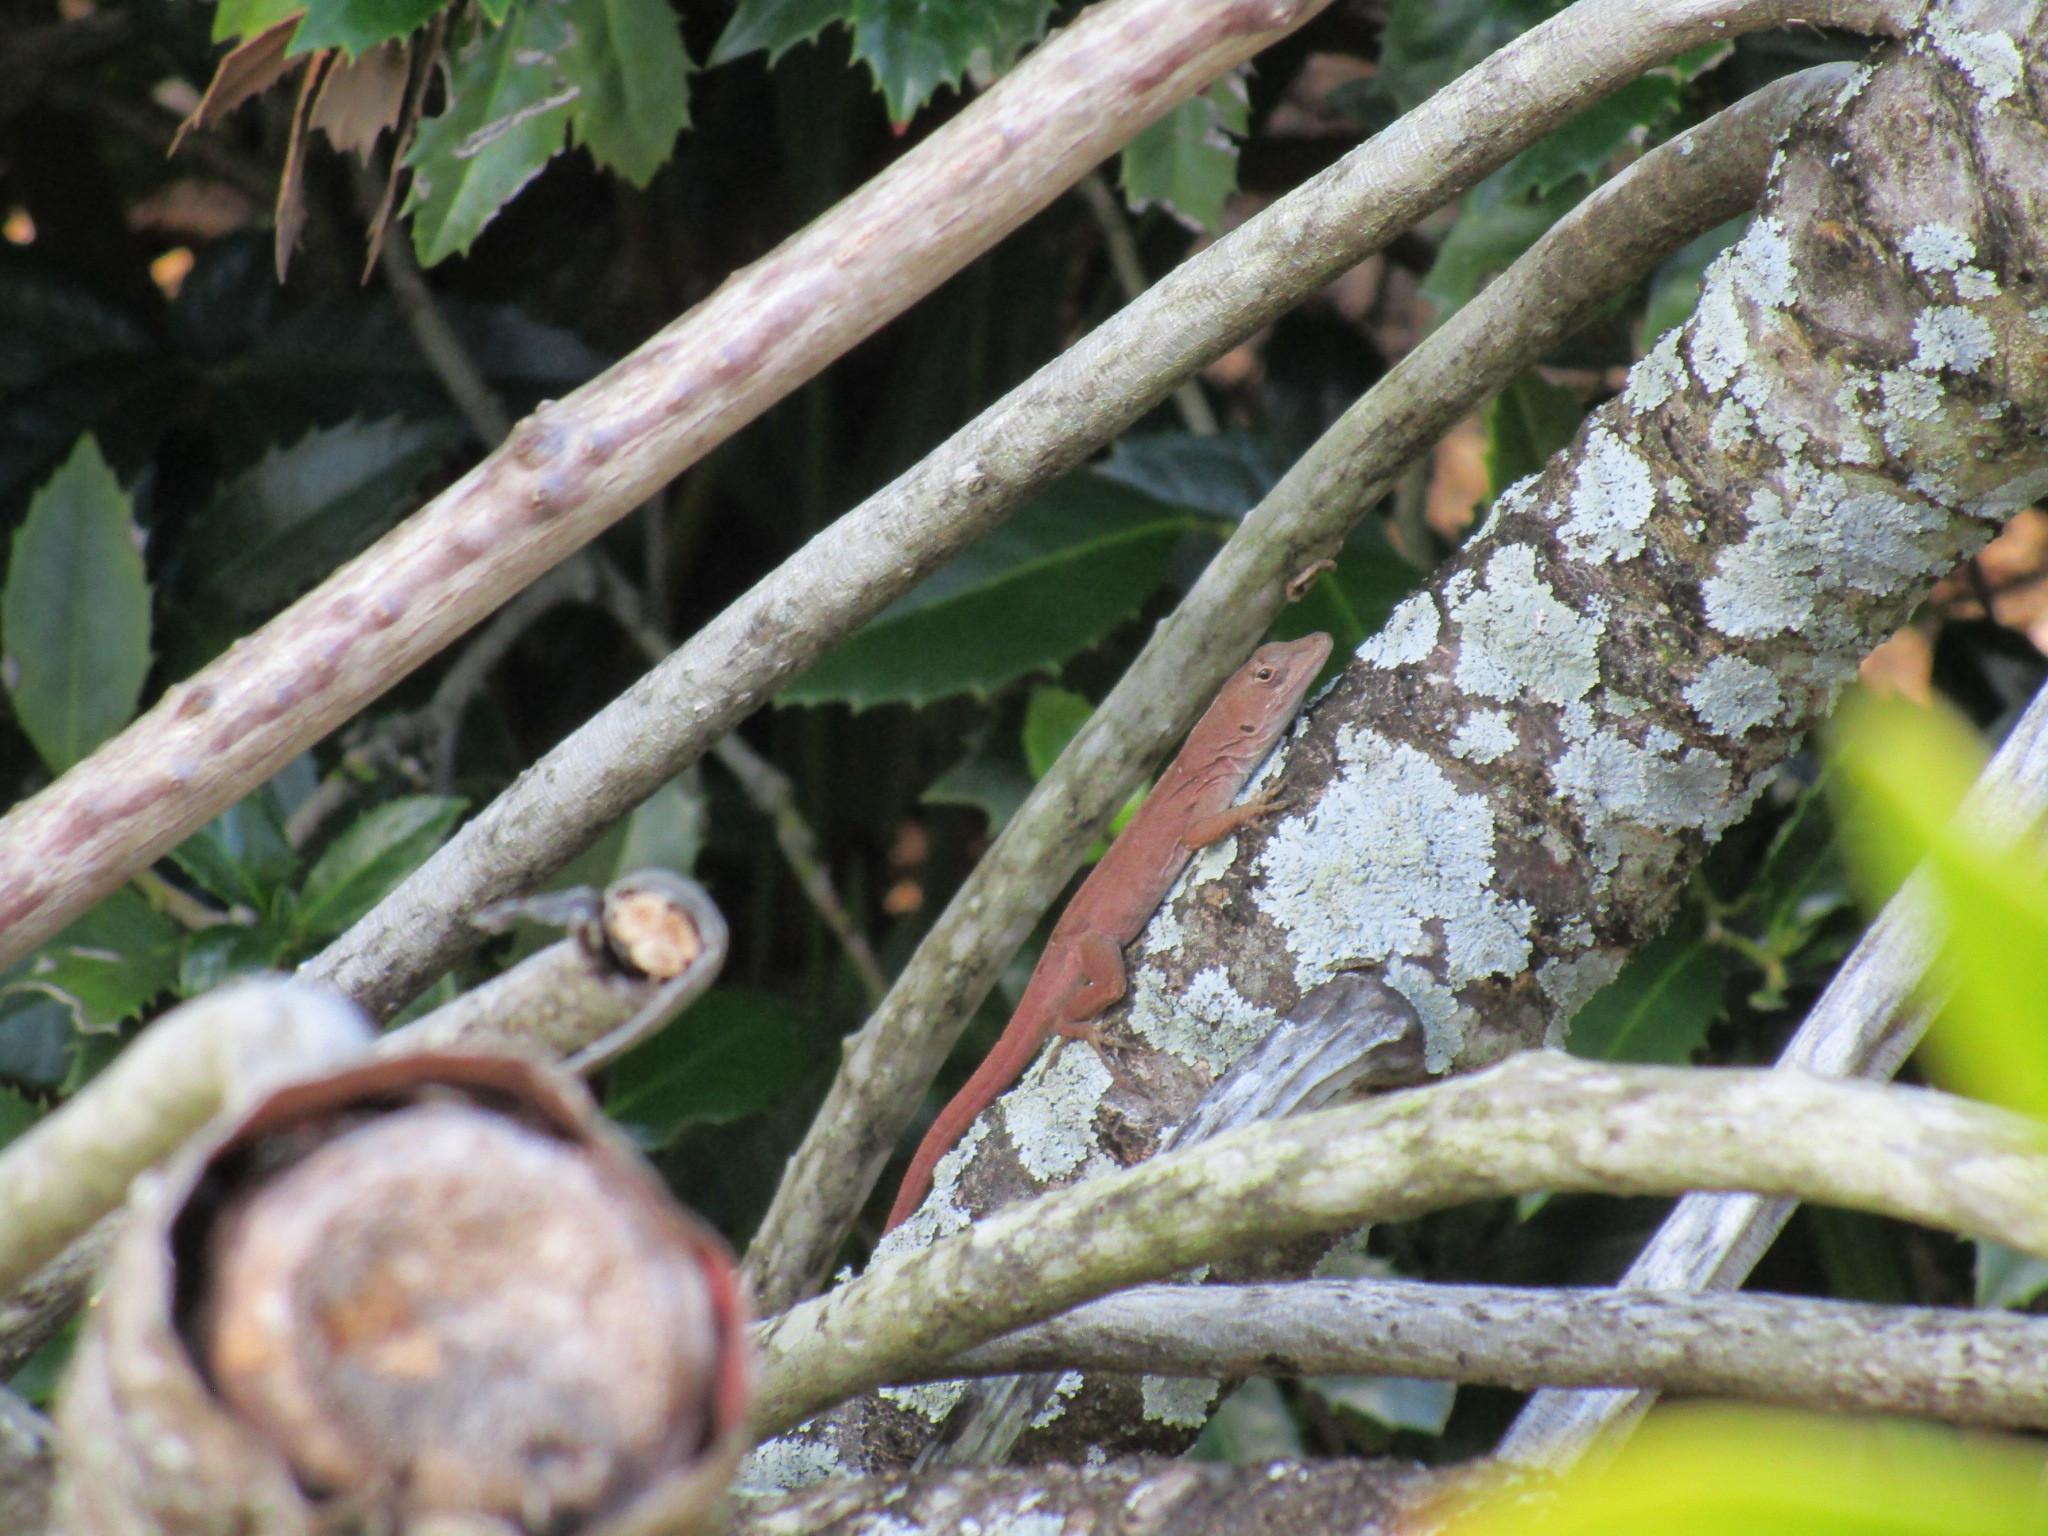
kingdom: Animalia
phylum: Chordata
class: Squamata
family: Dactyloidae
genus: Anolis
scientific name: Anolis sagrei
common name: Brown anole
